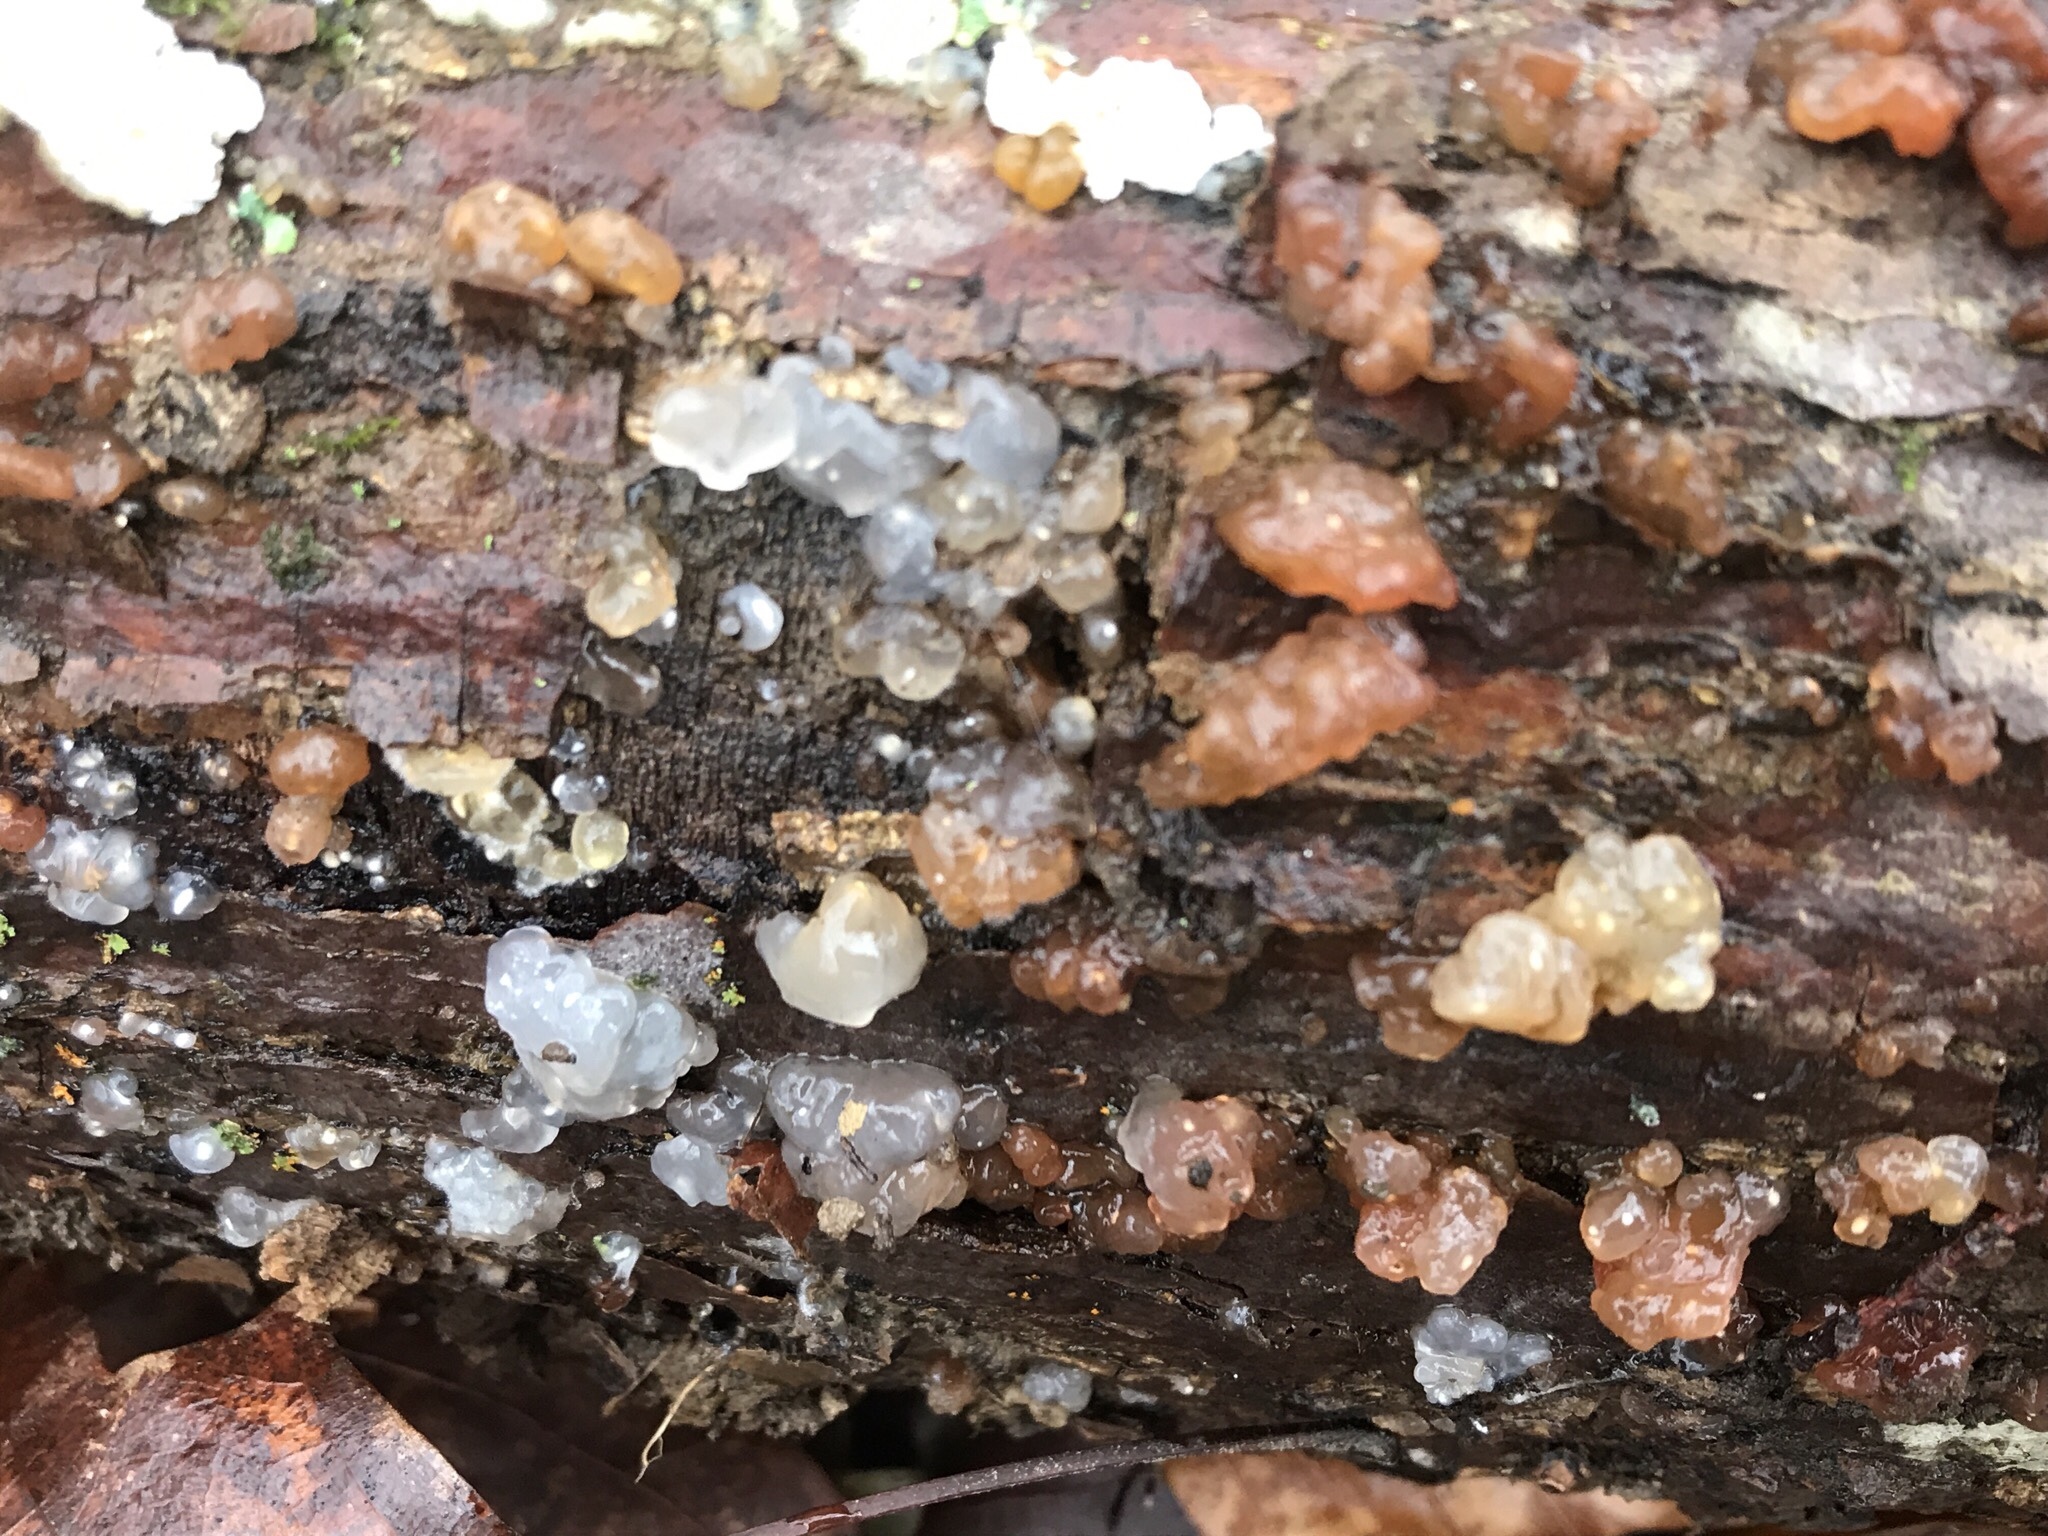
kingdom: Fungi
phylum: Basidiomycota
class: Agaricomycetes
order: Auriculariales
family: Hyaloriaceae
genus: Myxarium
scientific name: Myxarium nucleatum
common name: Crystal brain fungus
